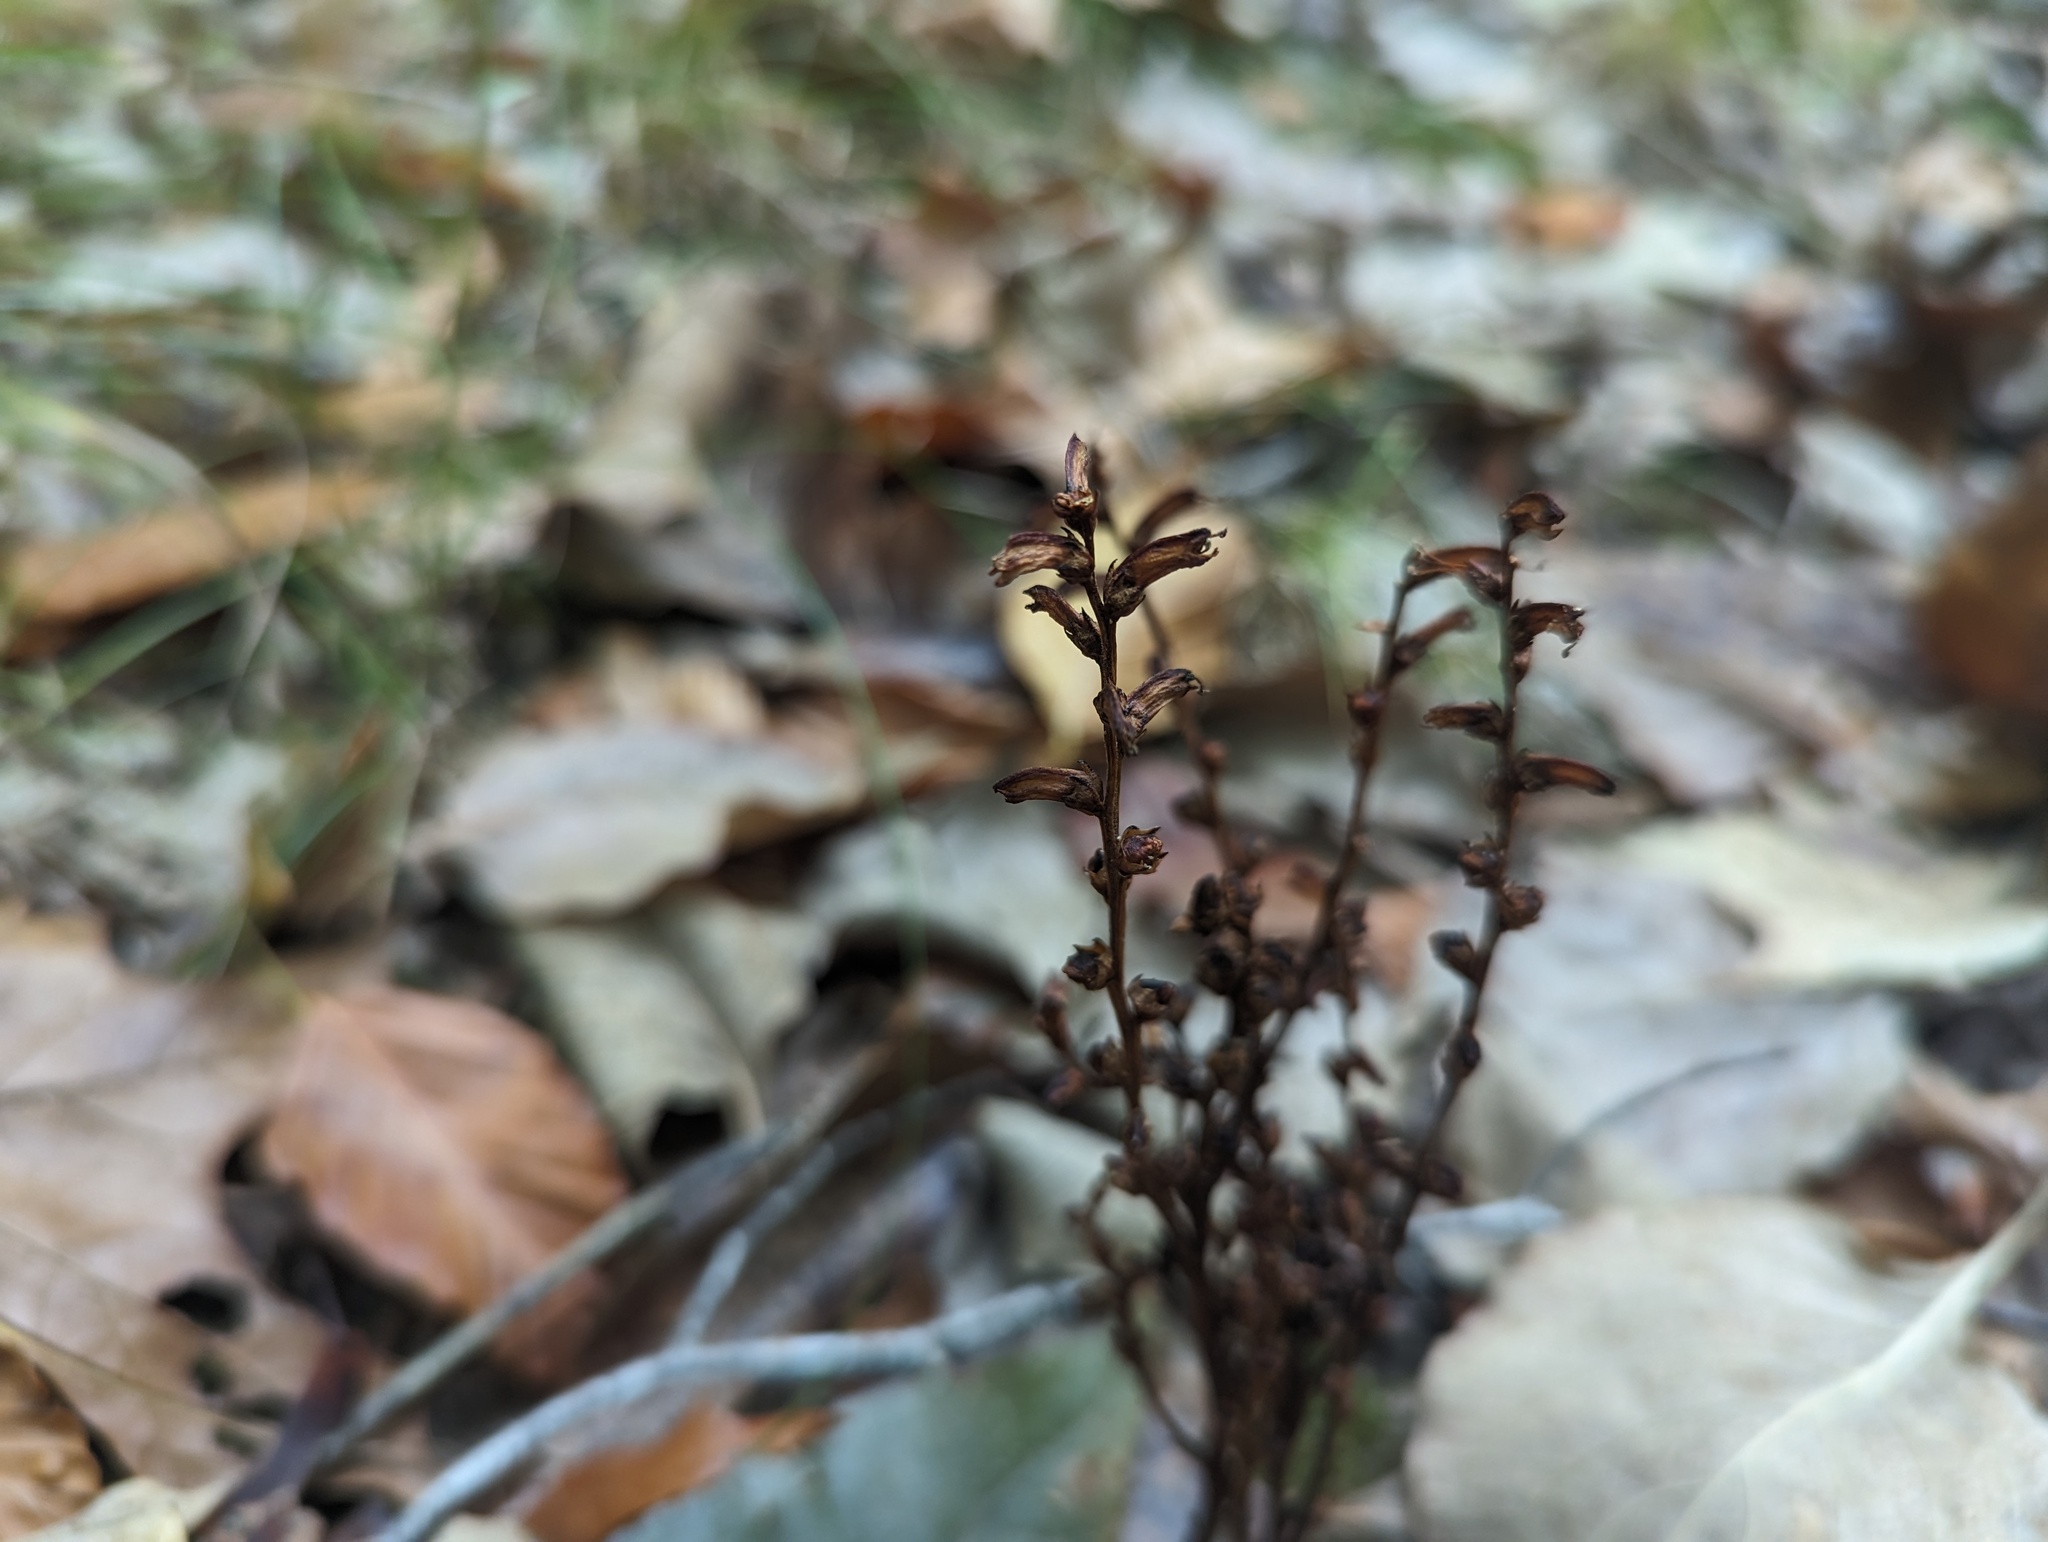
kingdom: Plantae
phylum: Tracheophyta
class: Magnoliopsida
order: Lamiales
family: Orobanchaceae
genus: Epifagus
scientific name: Epifagus virginiana
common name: Beechdrops
